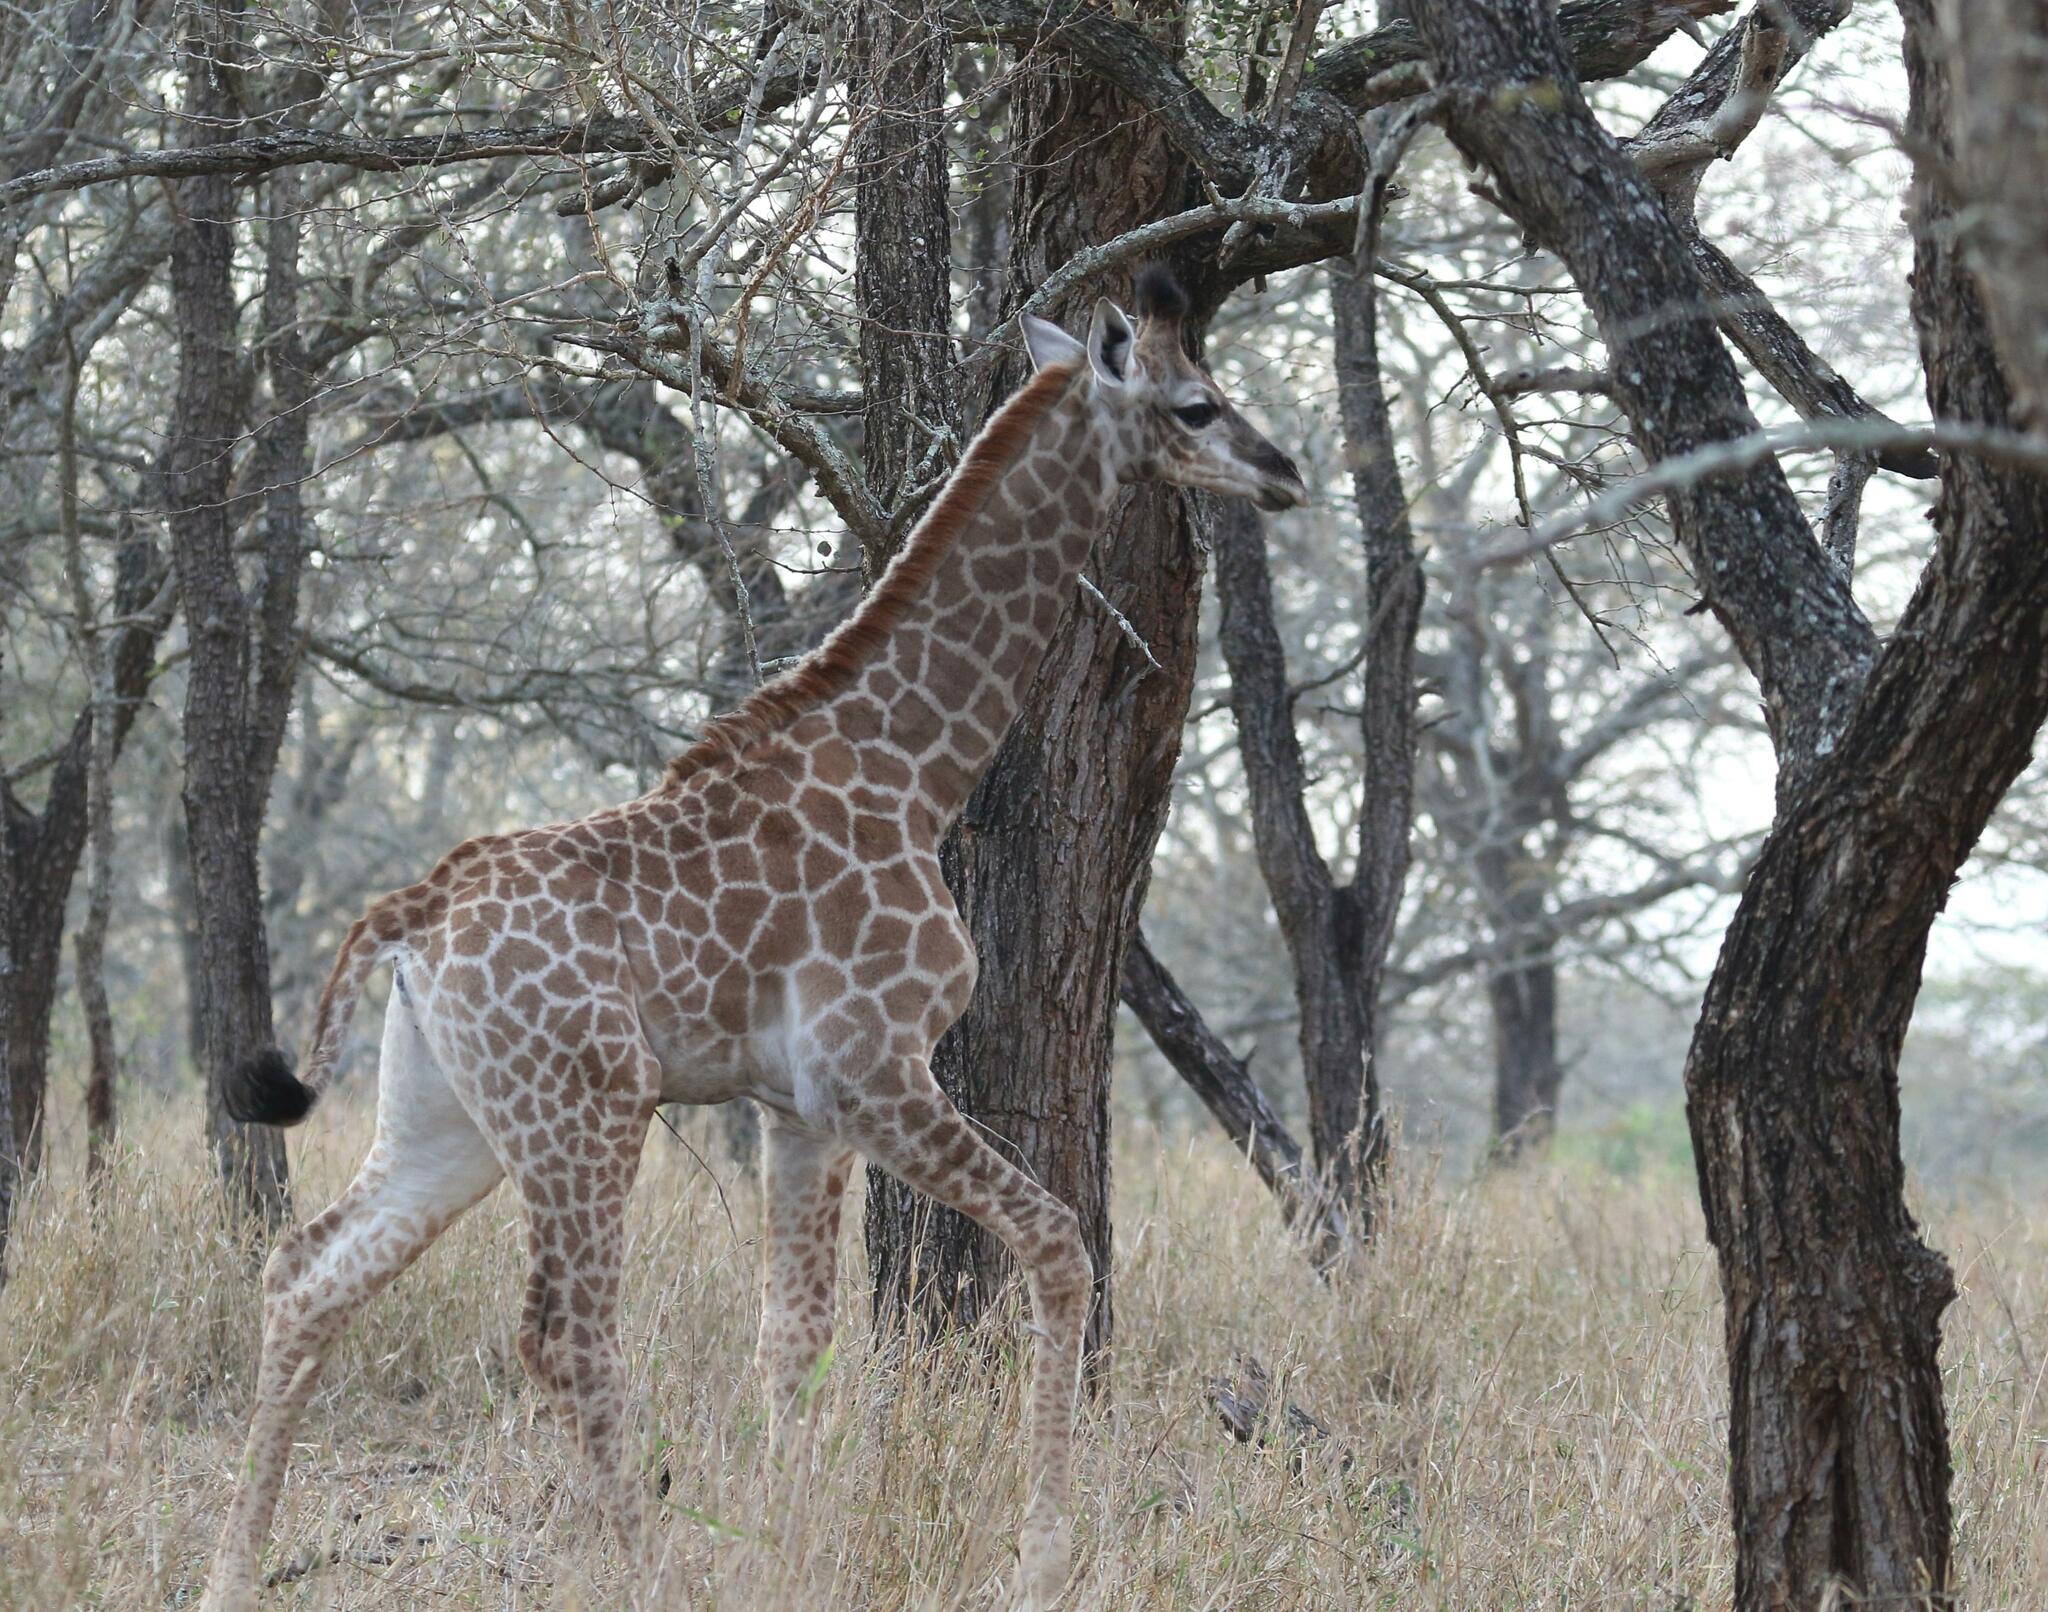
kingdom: Animalia
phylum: Chordata
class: Mammalia
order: Artiodactyla
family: Giraffidae
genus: Giraffa
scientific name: Giraffa giraffa
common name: Southern giraffe
